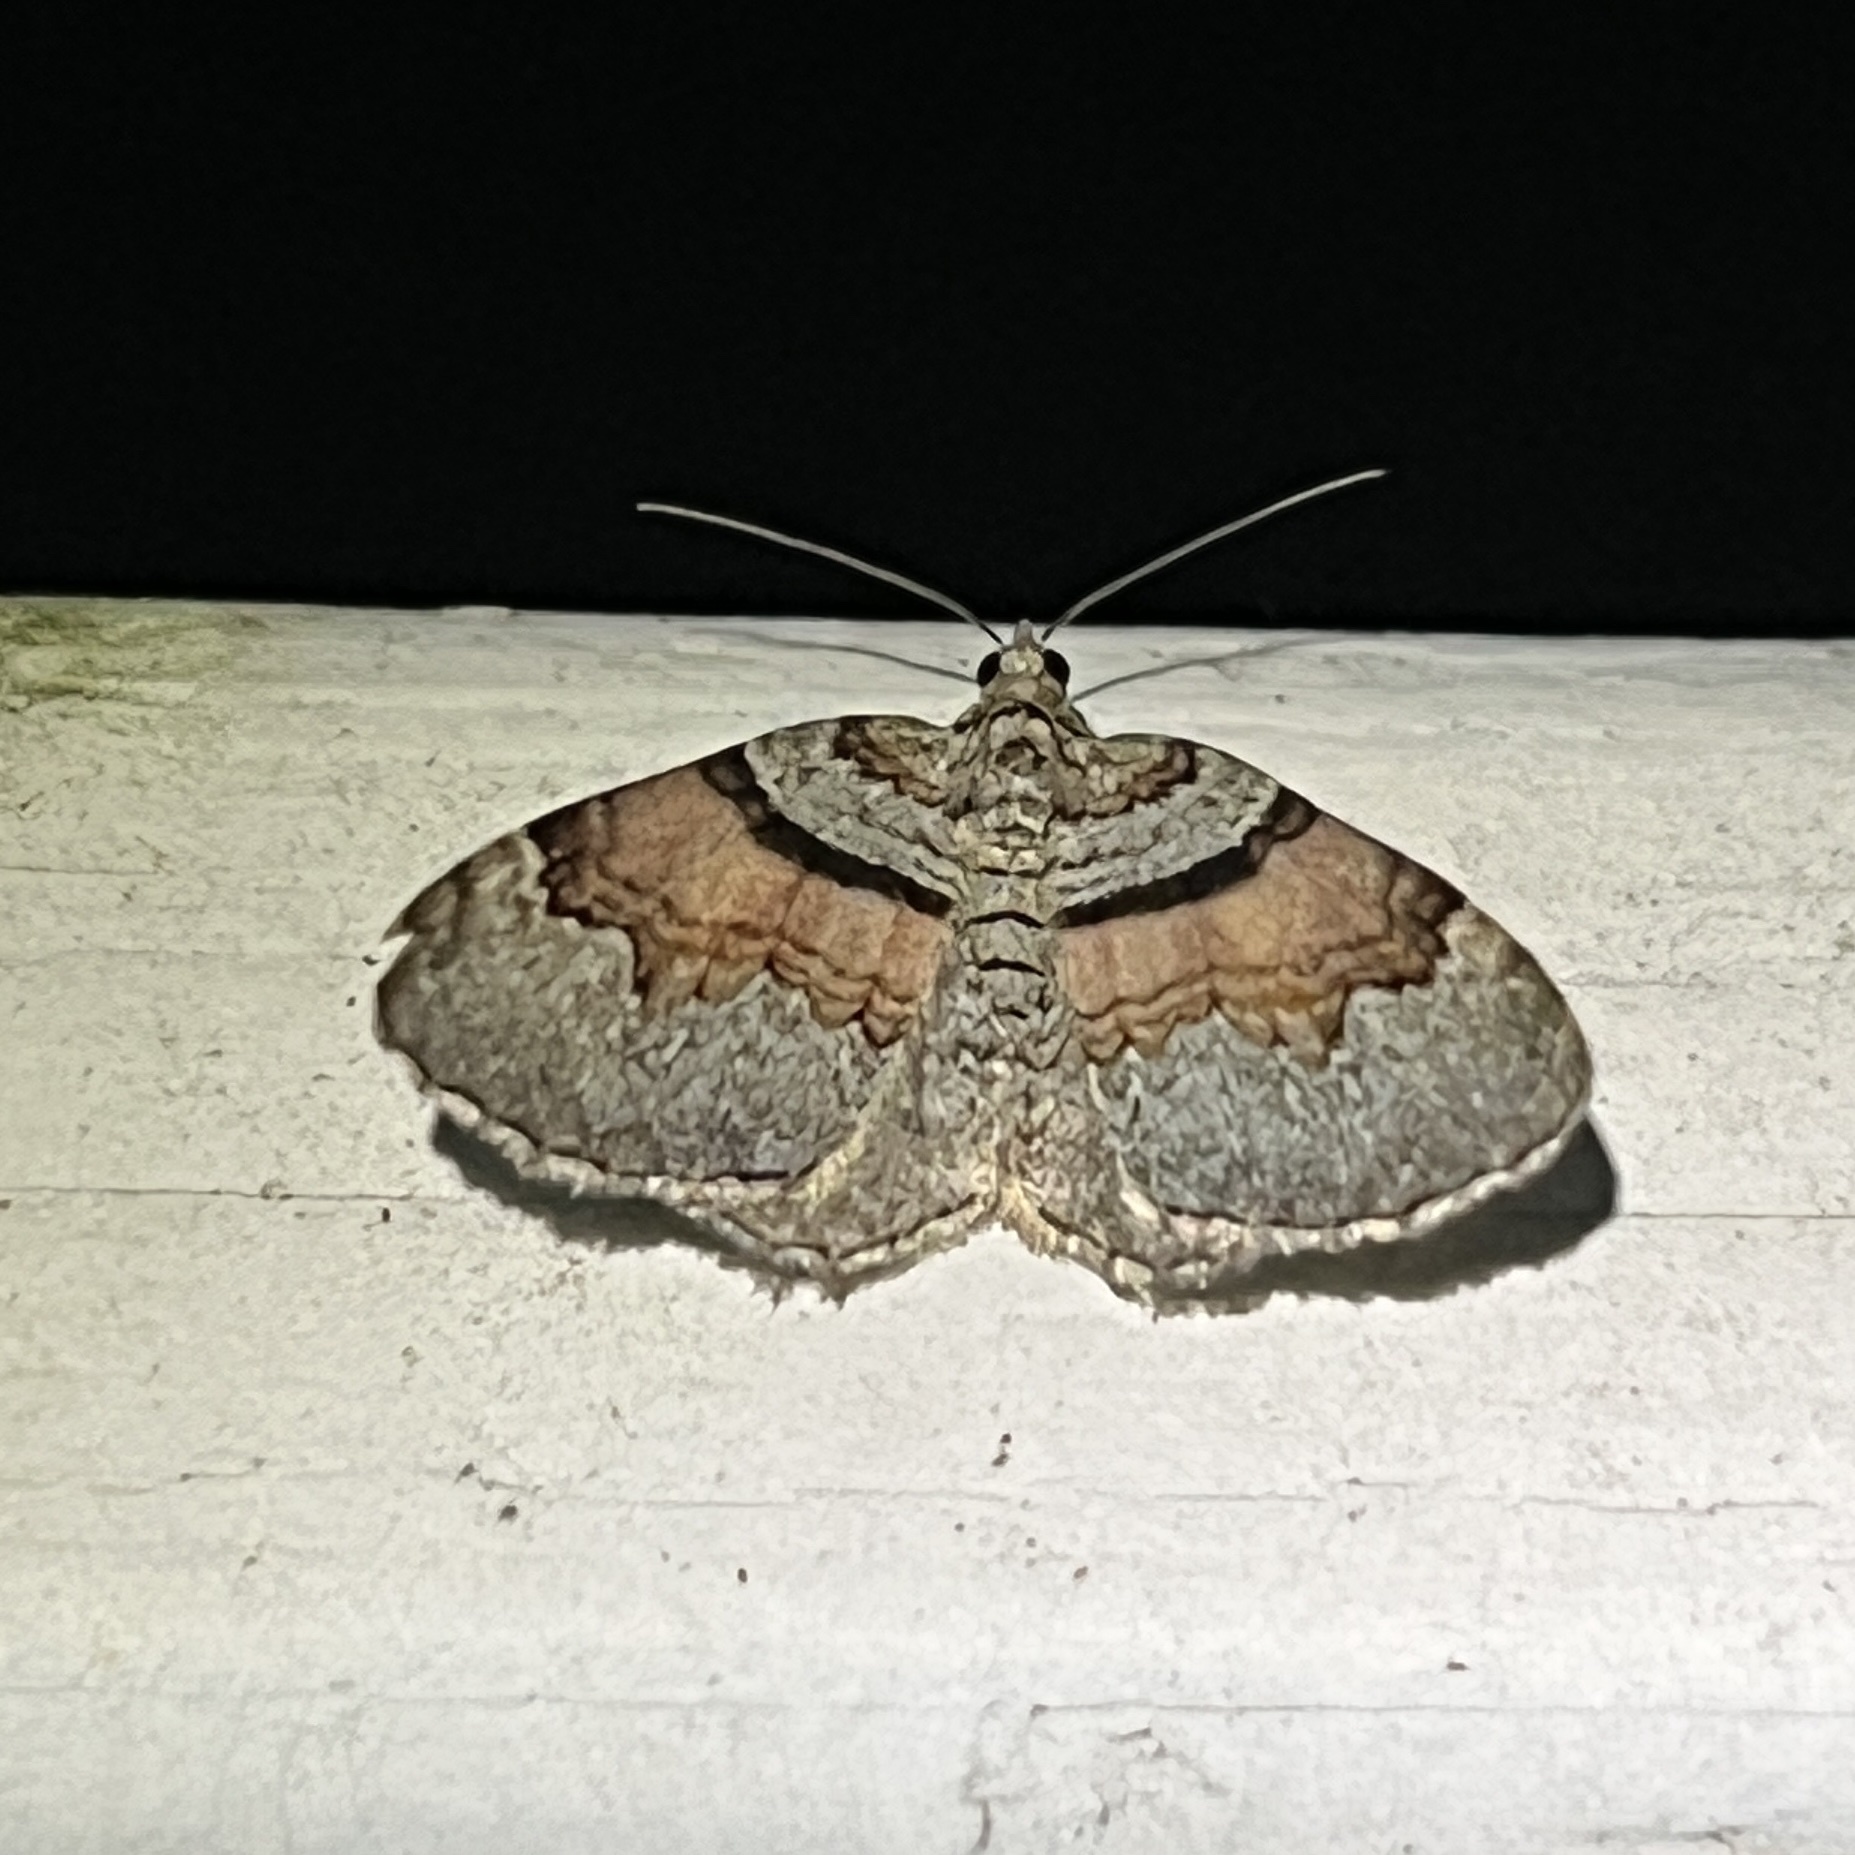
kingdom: Animalia
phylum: Arthropoda
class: Insecta
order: Lepidoptera
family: Geometridae
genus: Xanthorhoe
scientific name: Xanthorhoe labradorensis
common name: Labrador carpet
